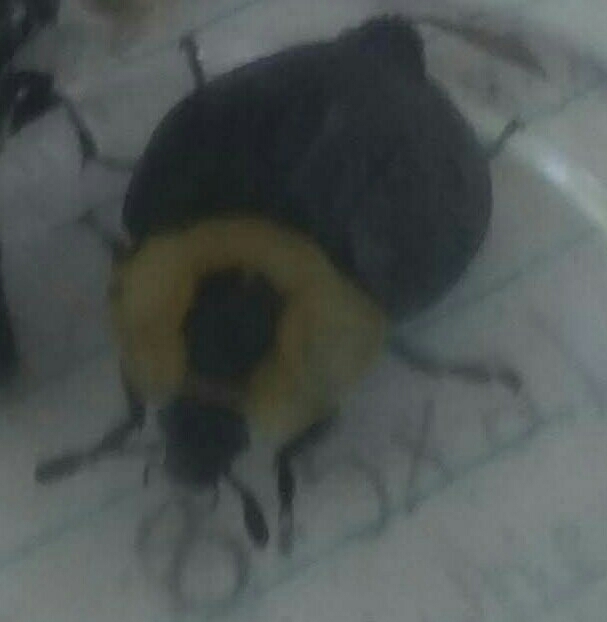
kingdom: Animalia
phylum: Arthropoda
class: Insecta
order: Coleoptera
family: Staphylinidae
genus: Necrophila
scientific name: Necrophila americana
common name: American carrion beetle
